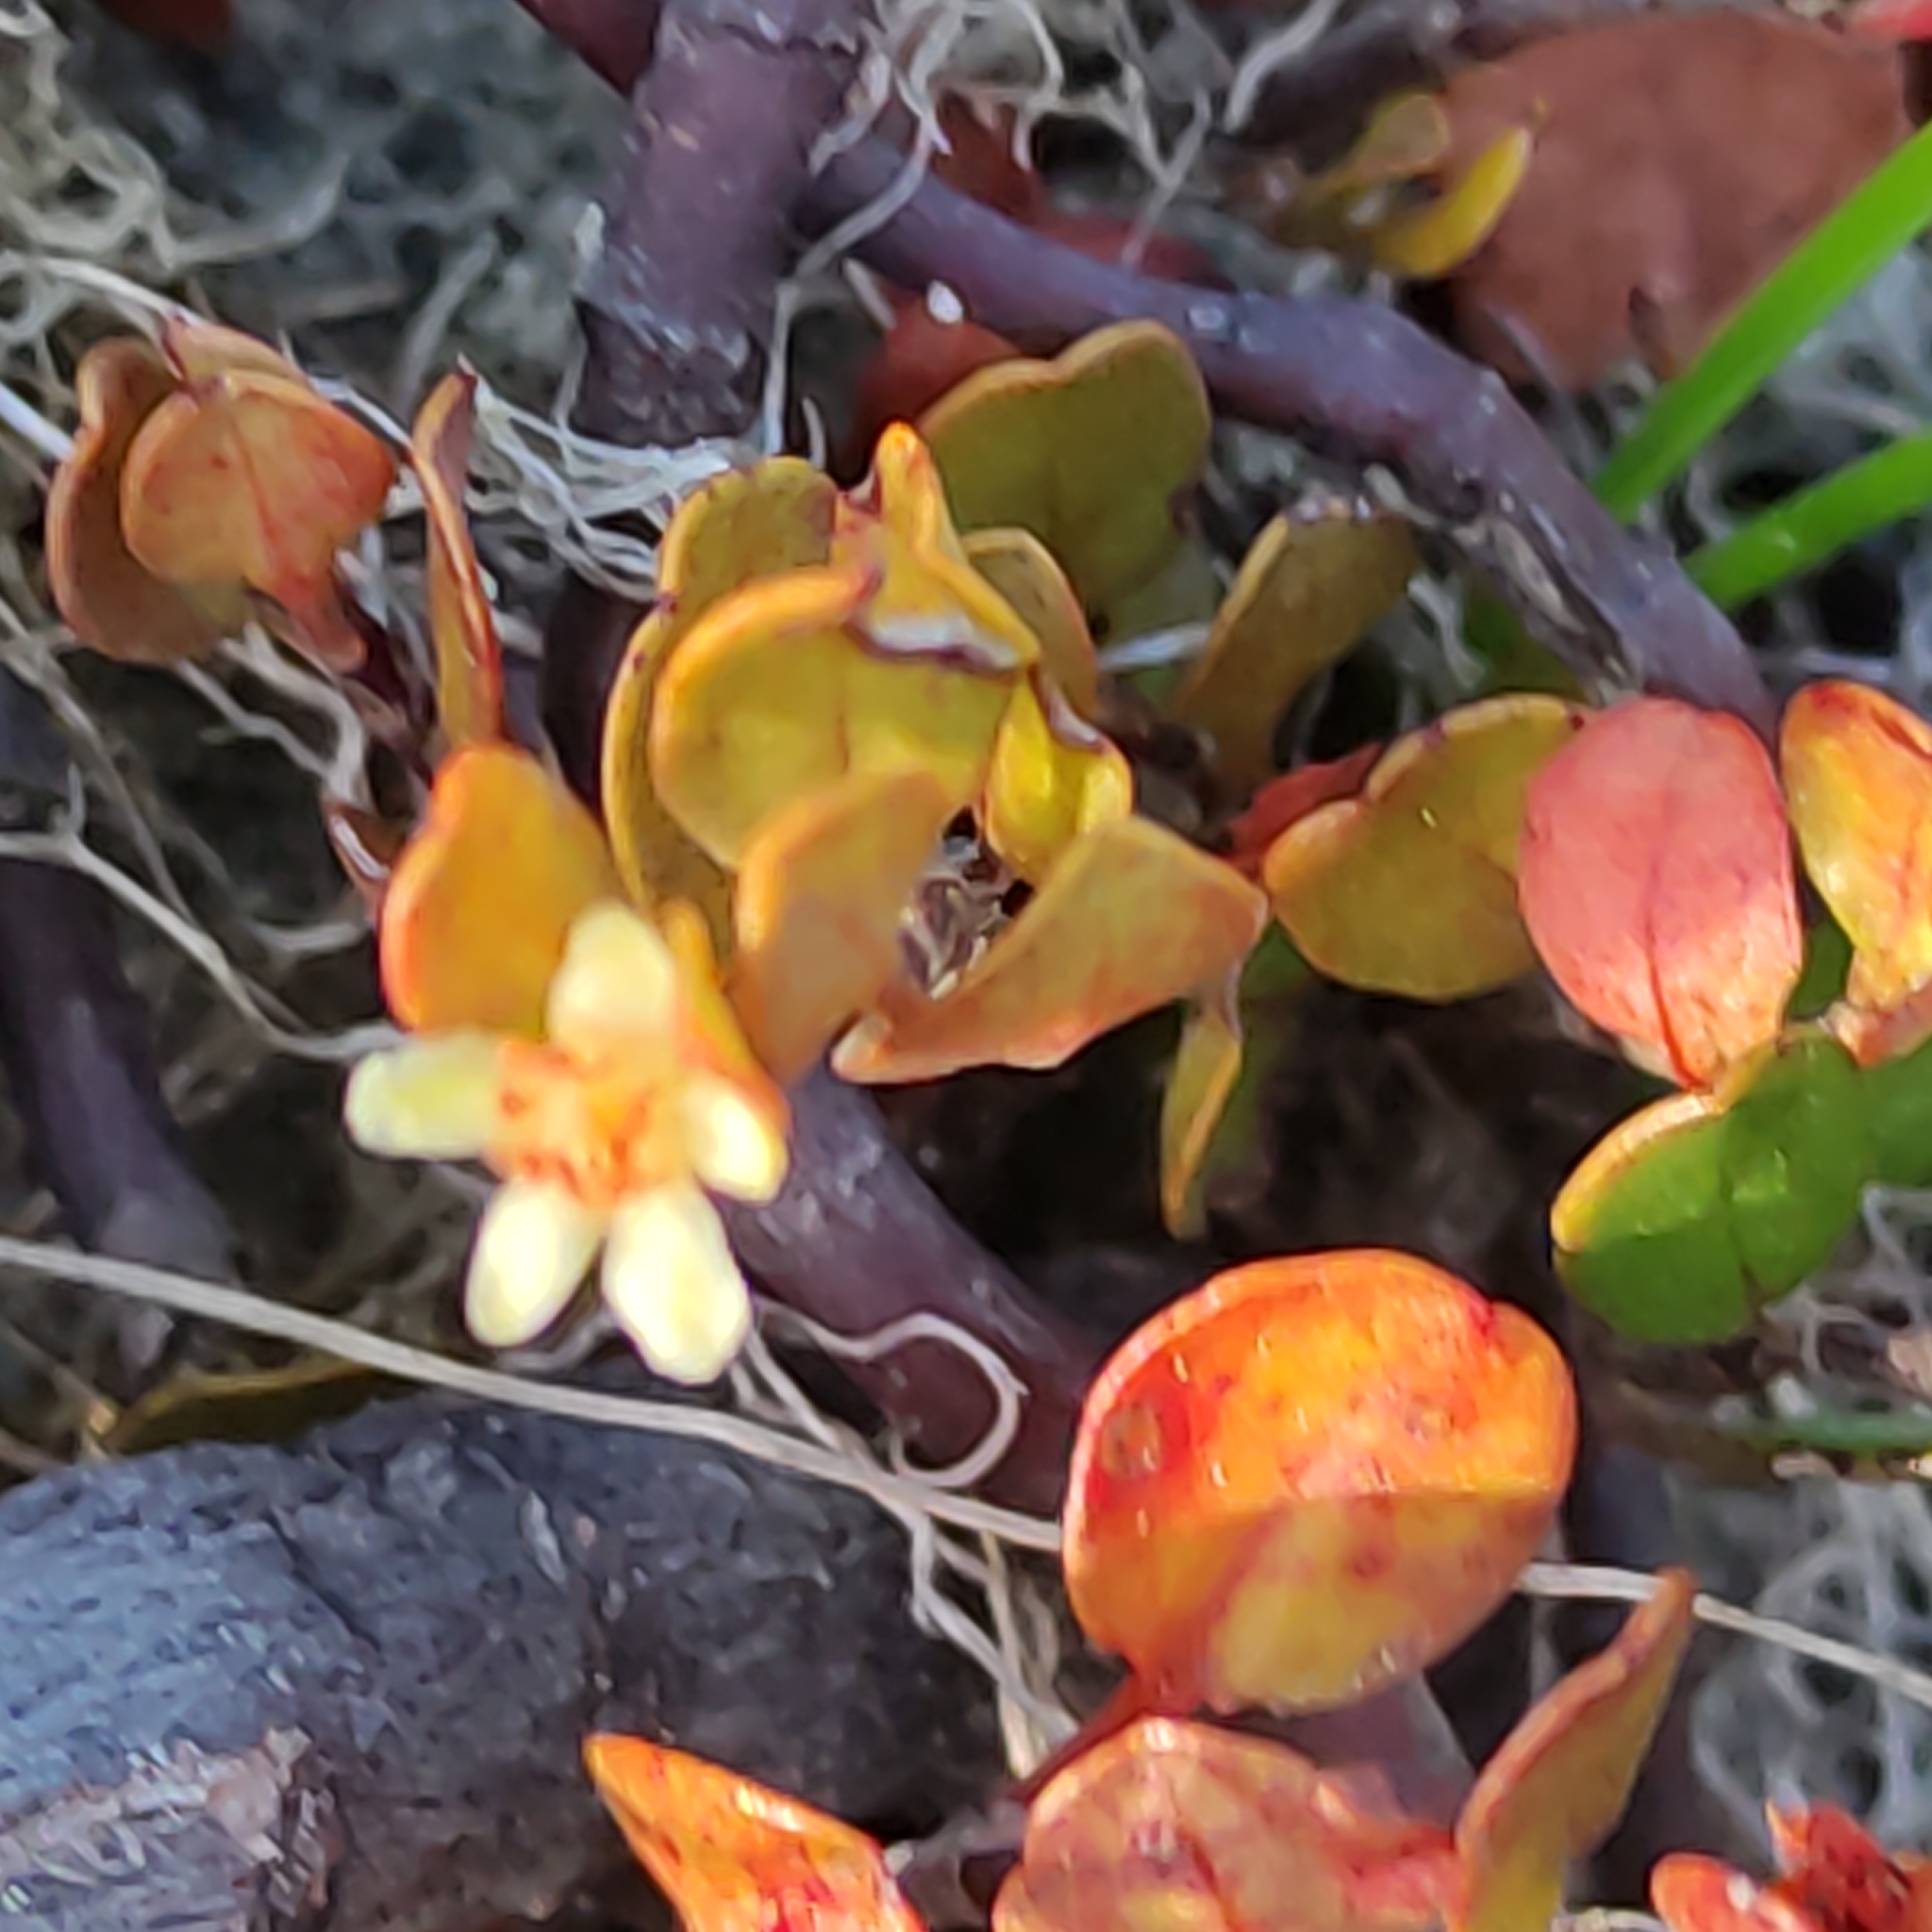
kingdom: Plantae
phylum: Tracheophyta
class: Magnoliopsida
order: Caryophyllales
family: Polygonaceae
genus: Muehlenbeckia
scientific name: Muehlenbeckia axillaris
